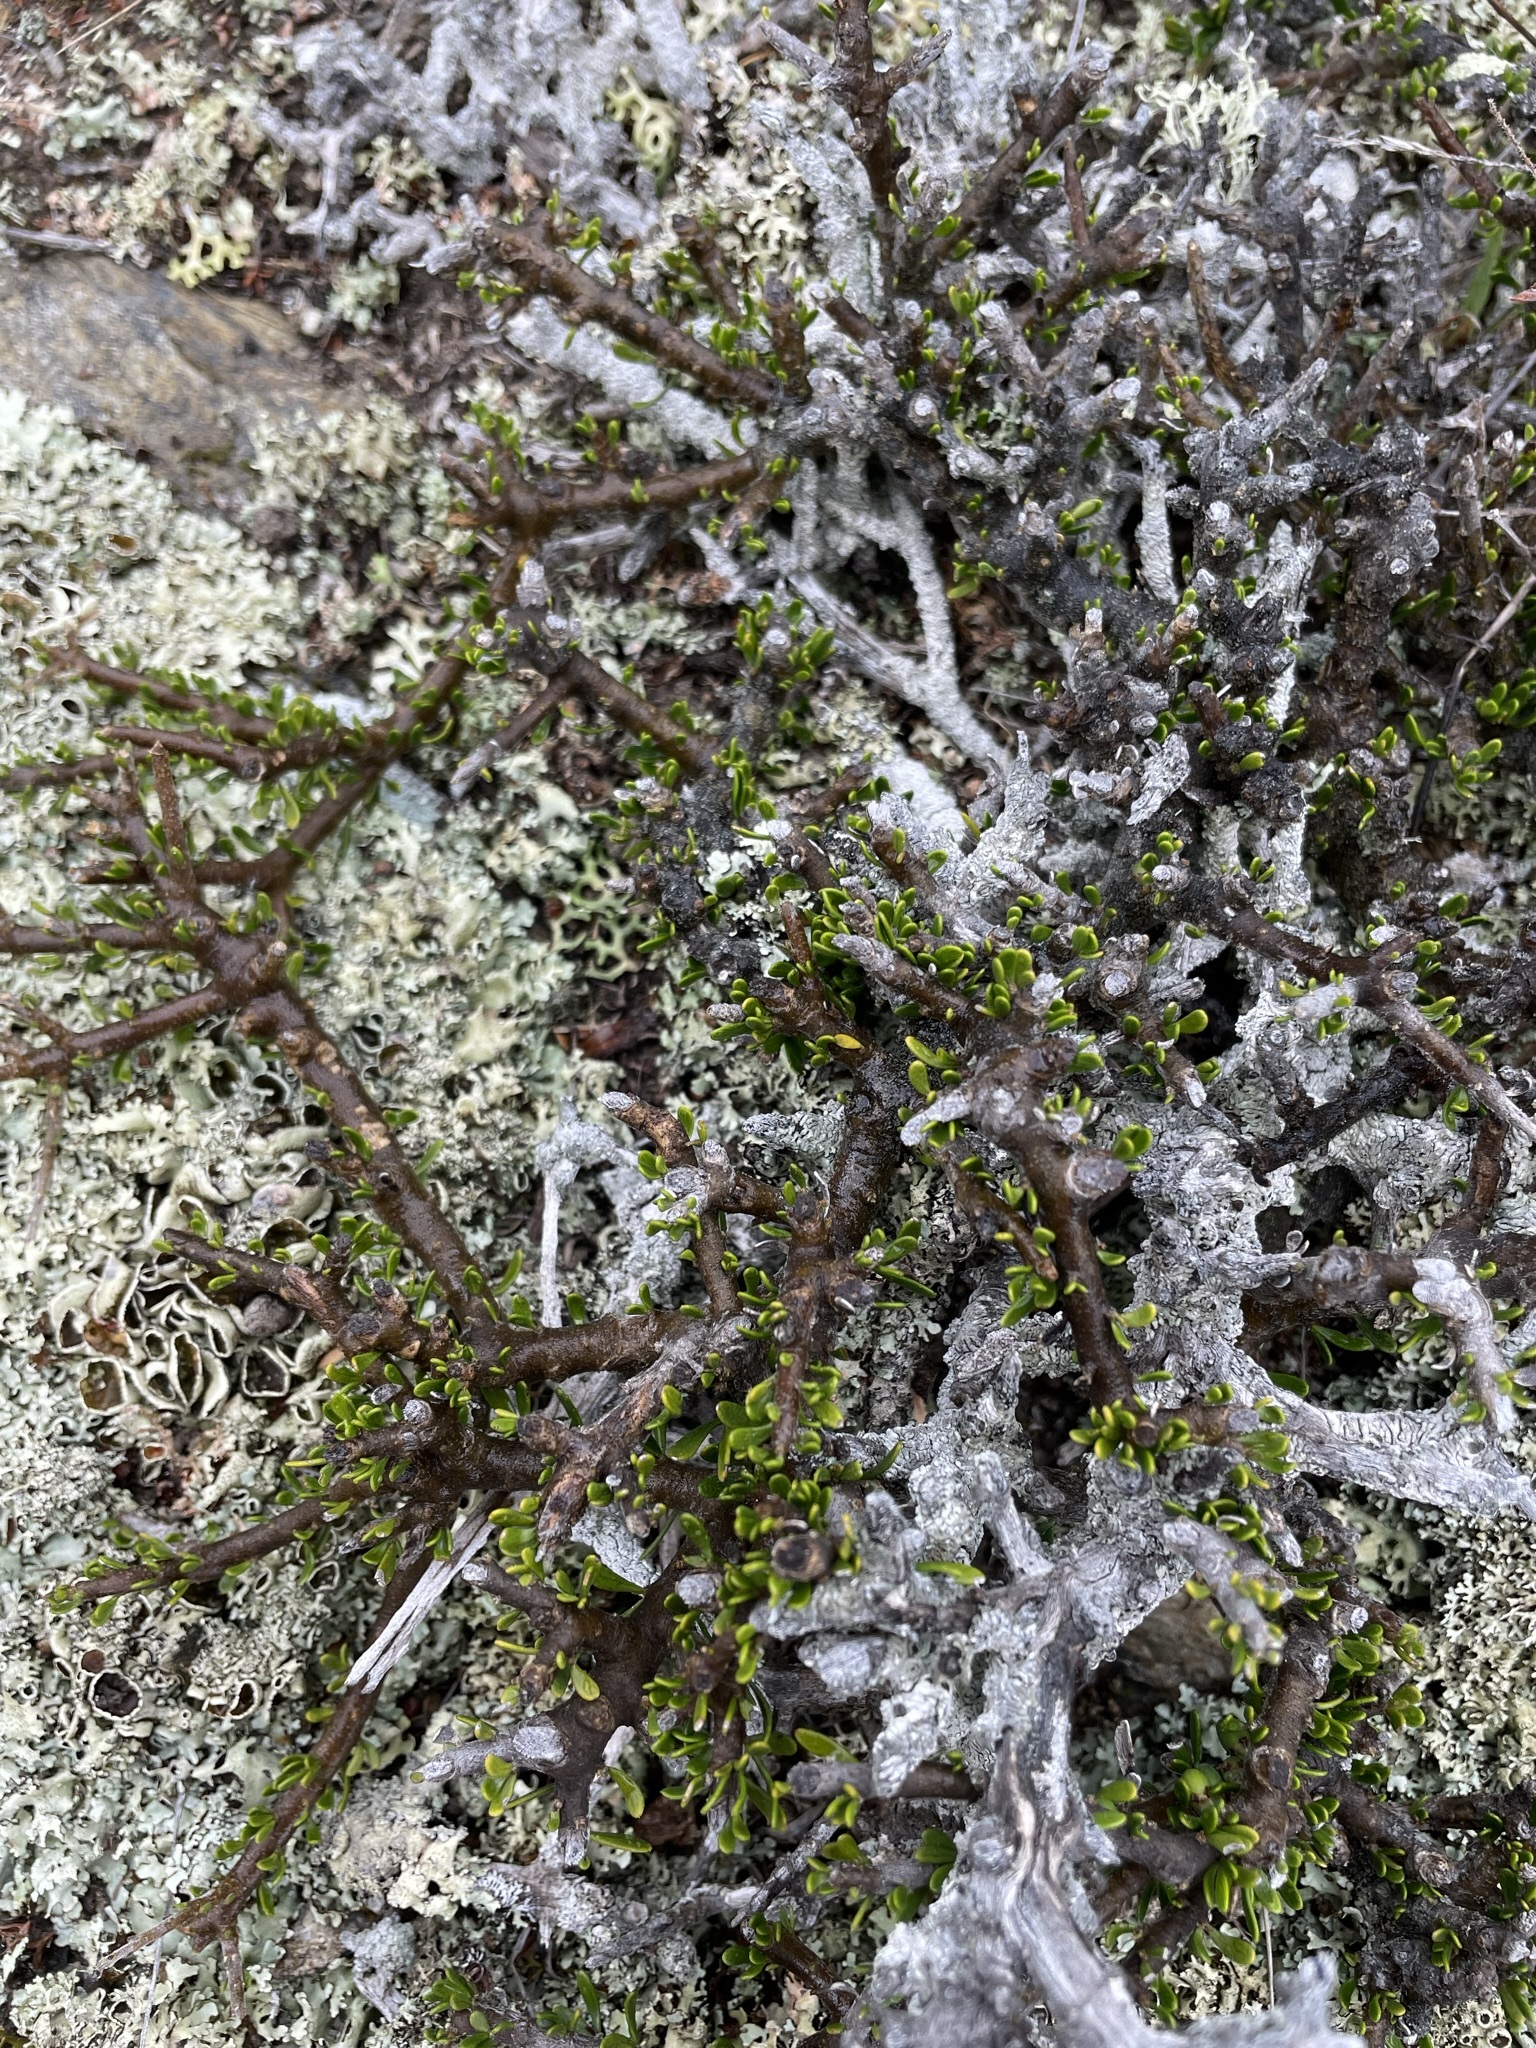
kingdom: Plantae
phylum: Tracheophyta
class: Magnoliopsida
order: Malpighiales
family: Violaceae
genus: Melicytus
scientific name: Melicytus alpinus
